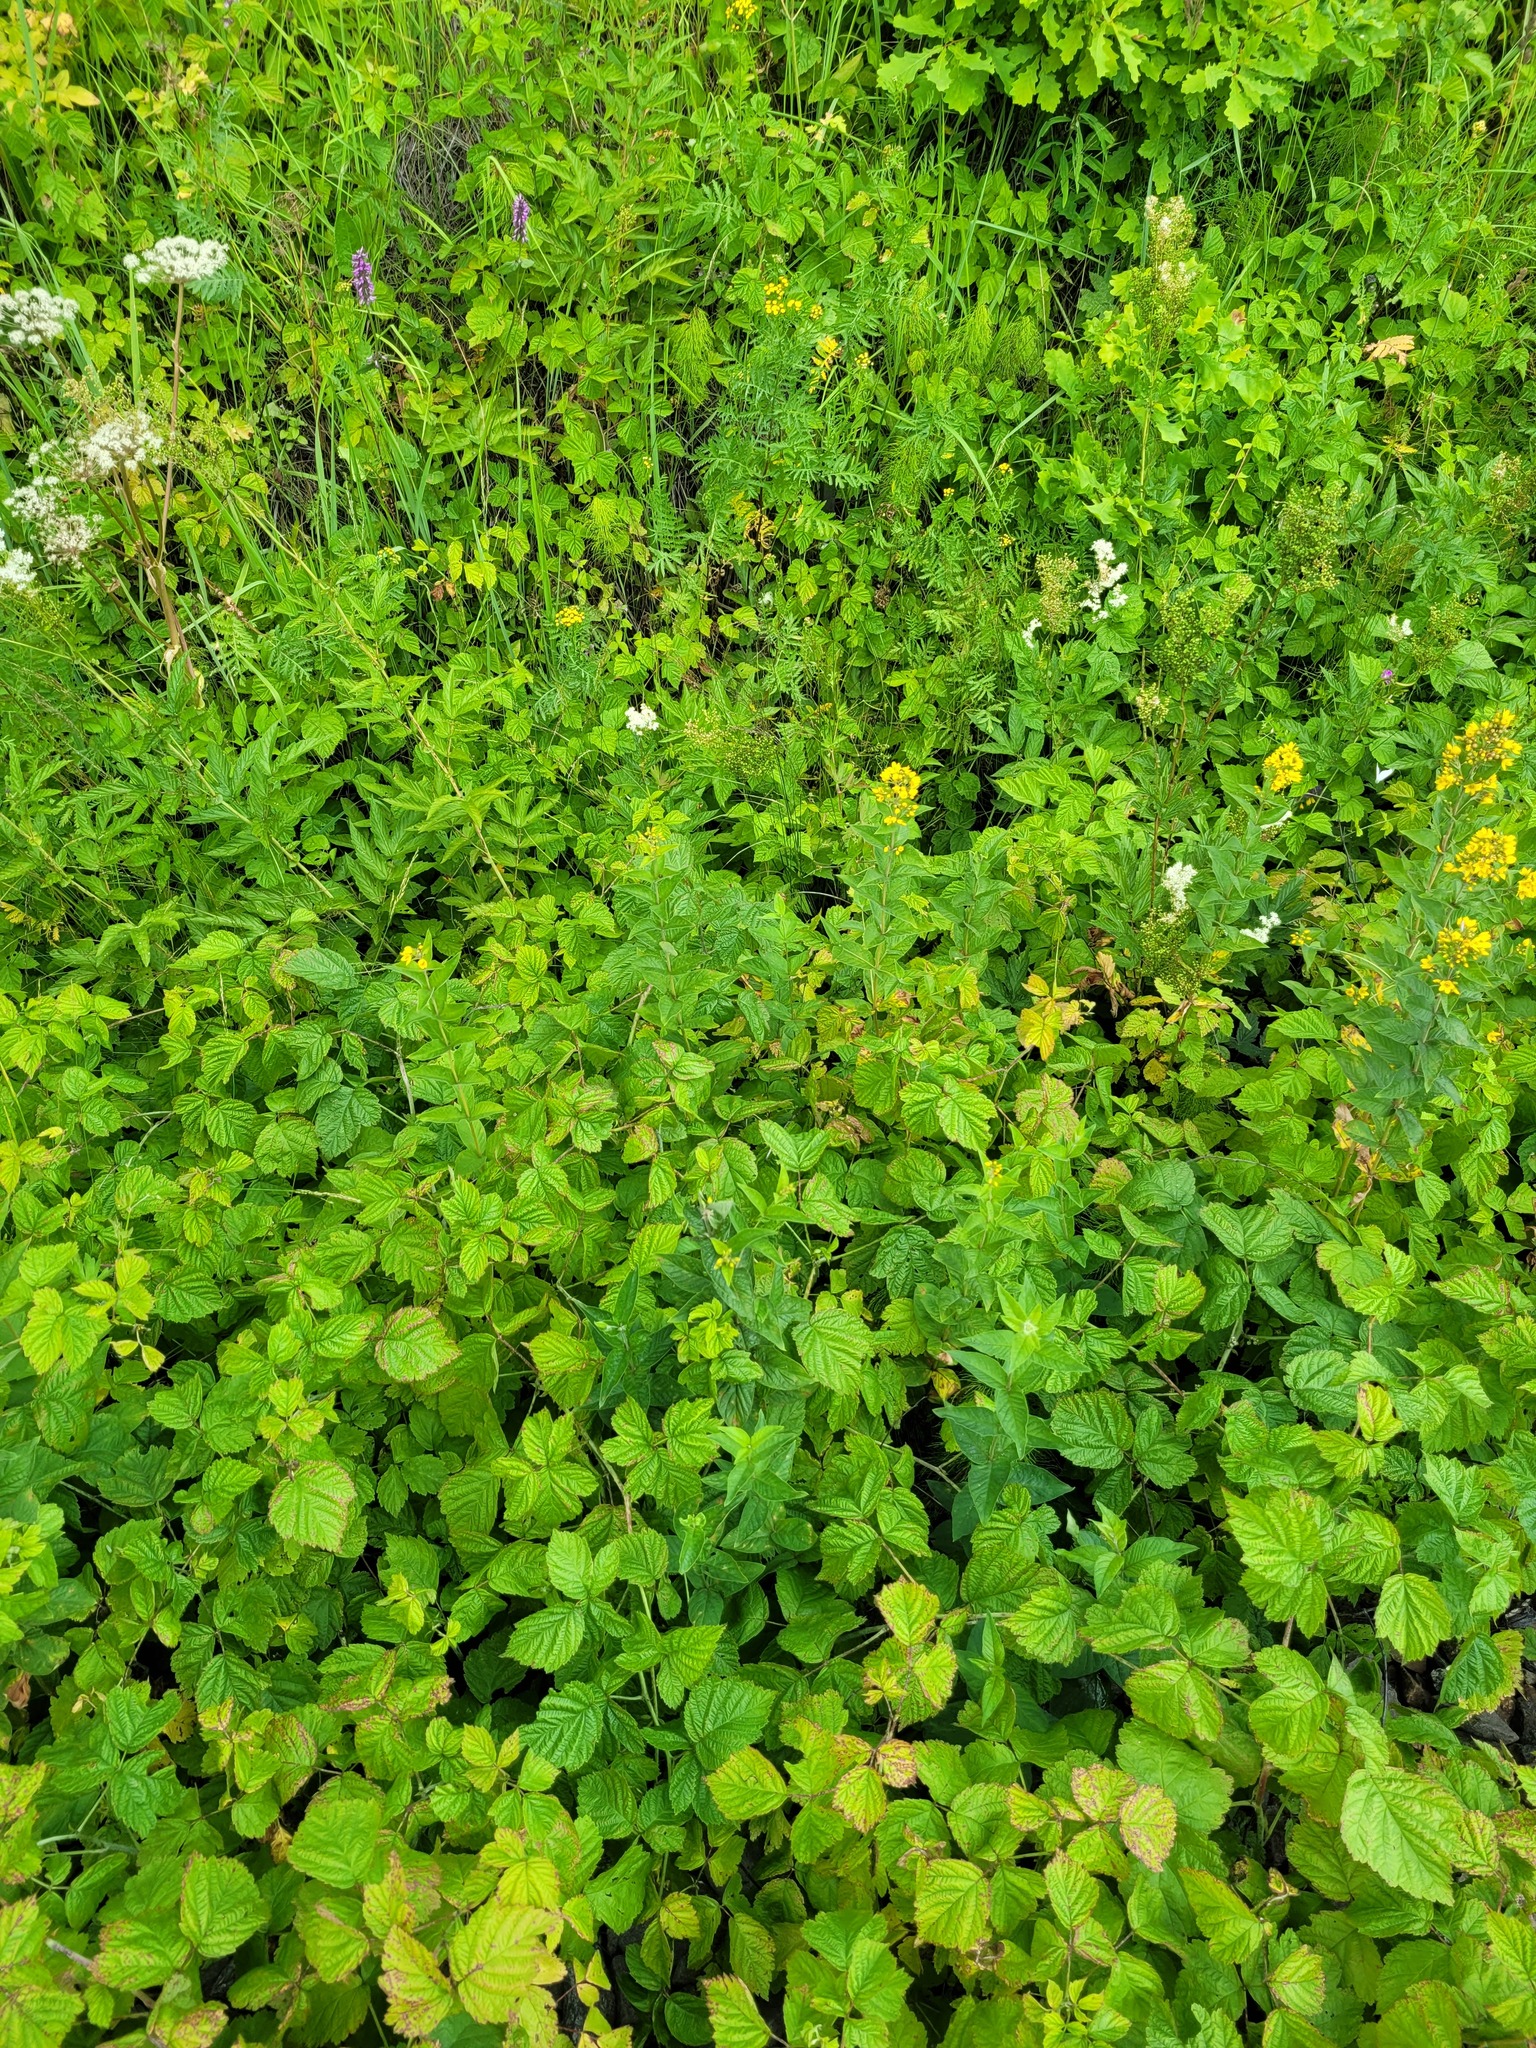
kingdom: Plantae
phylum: Tracheophyta
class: Magnoliopsida
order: Ericales
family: Primulaceae
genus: Lysimachia
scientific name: Lysimachia vulgaris
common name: Yellow loosestrife
